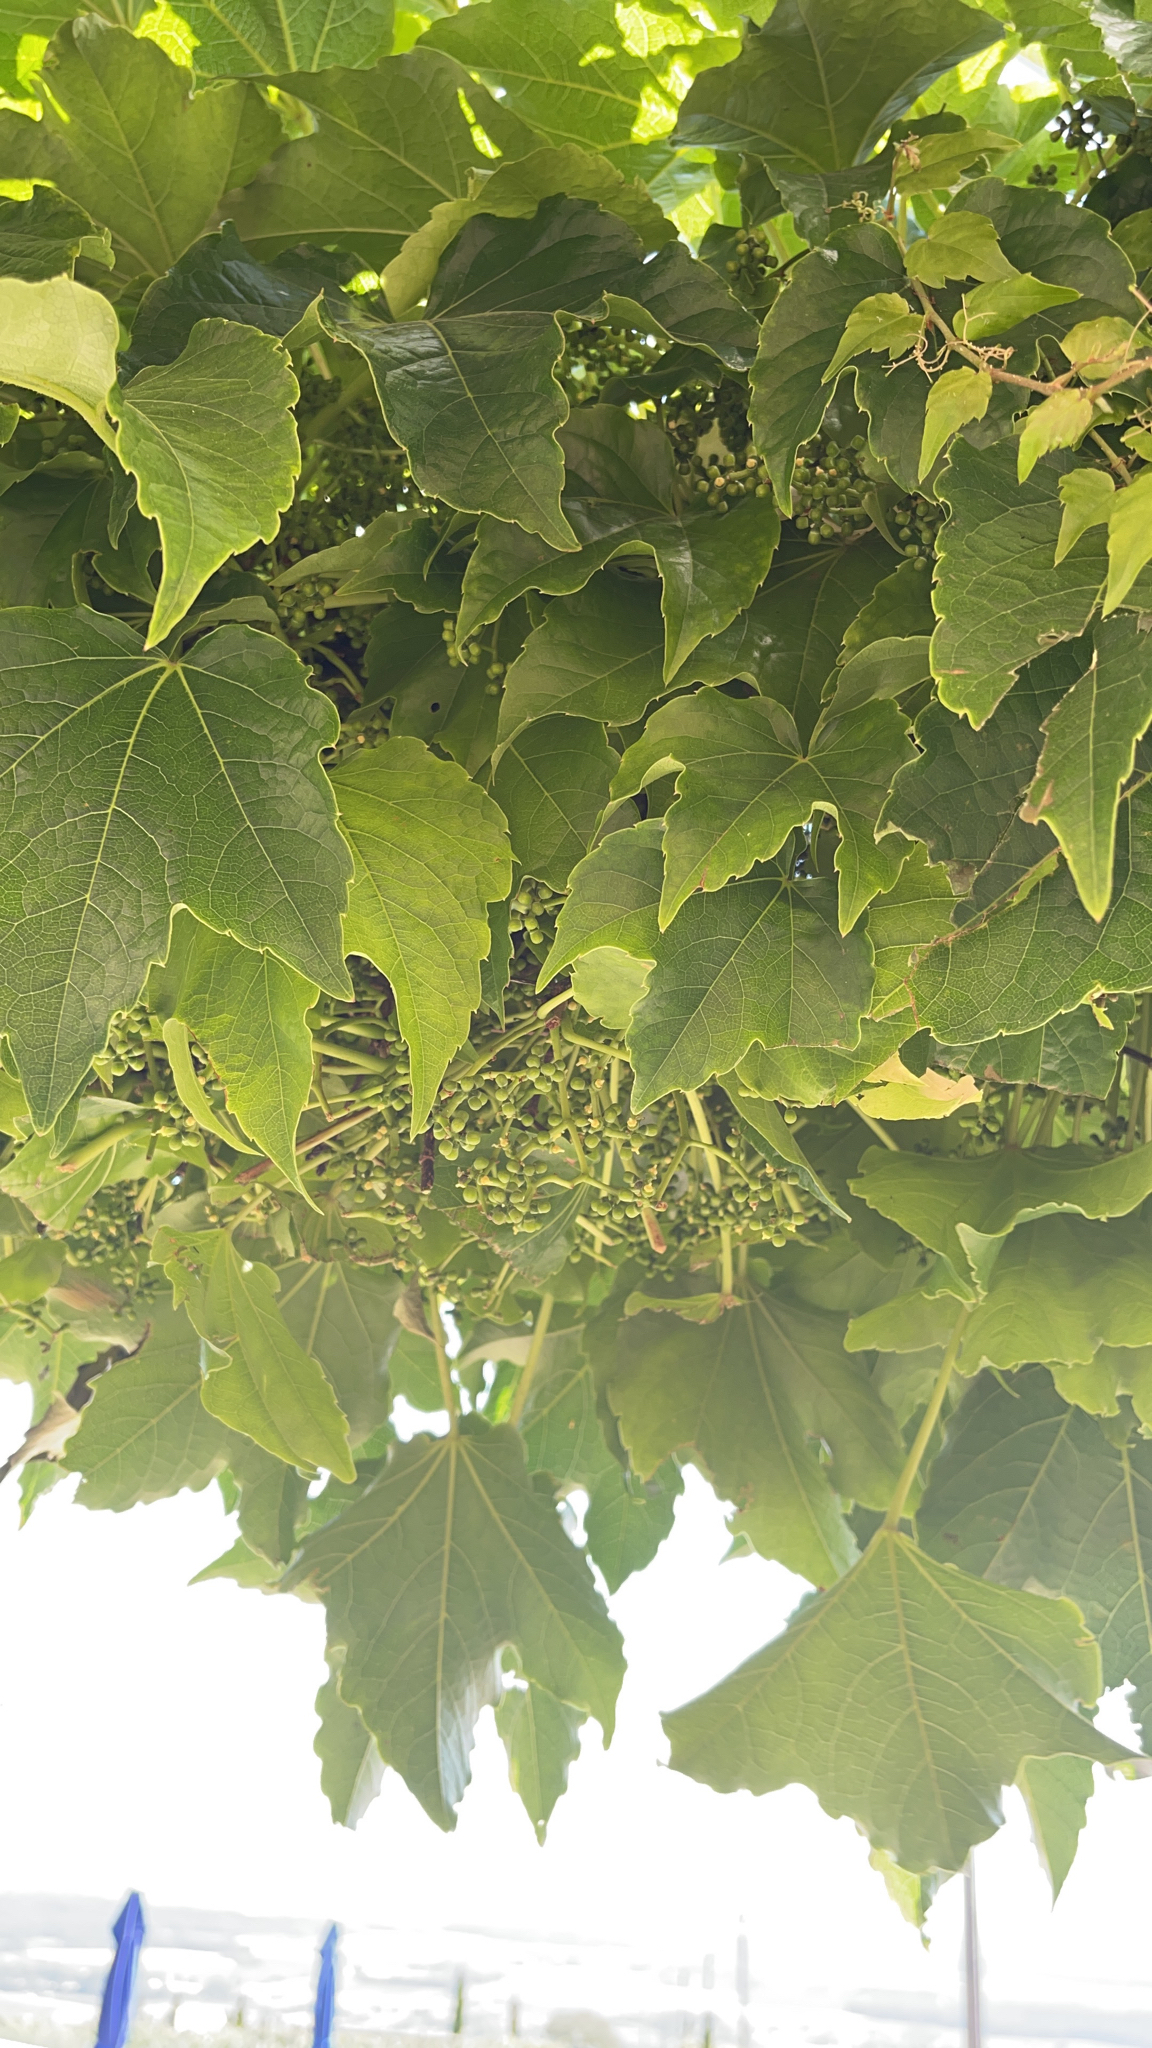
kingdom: Plantae
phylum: Tracheophyta
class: Magnoliopsida
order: Vitales
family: Vitaceae
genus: Parthenocissus
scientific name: Parthenocissus tricuspidata
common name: Boston ivy
